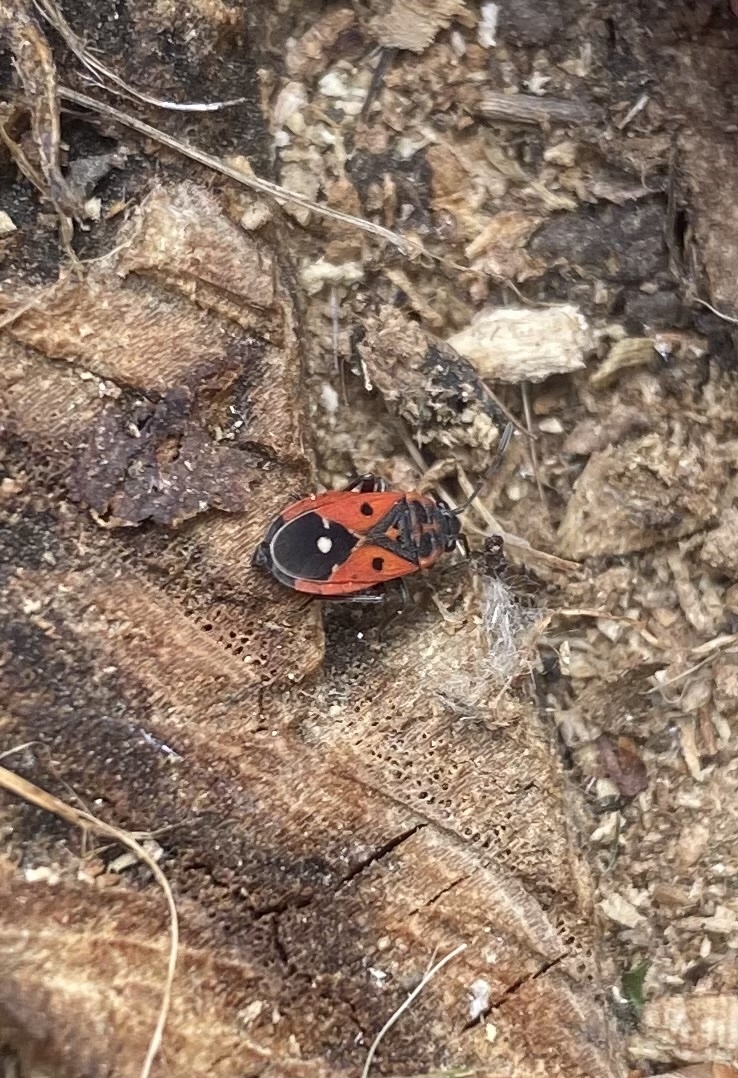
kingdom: Animalia
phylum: Arthropoda
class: Insecta
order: Hemiptera
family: Lygaeidae
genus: Melanocoryphus
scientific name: Melanocoryphus tristrami
